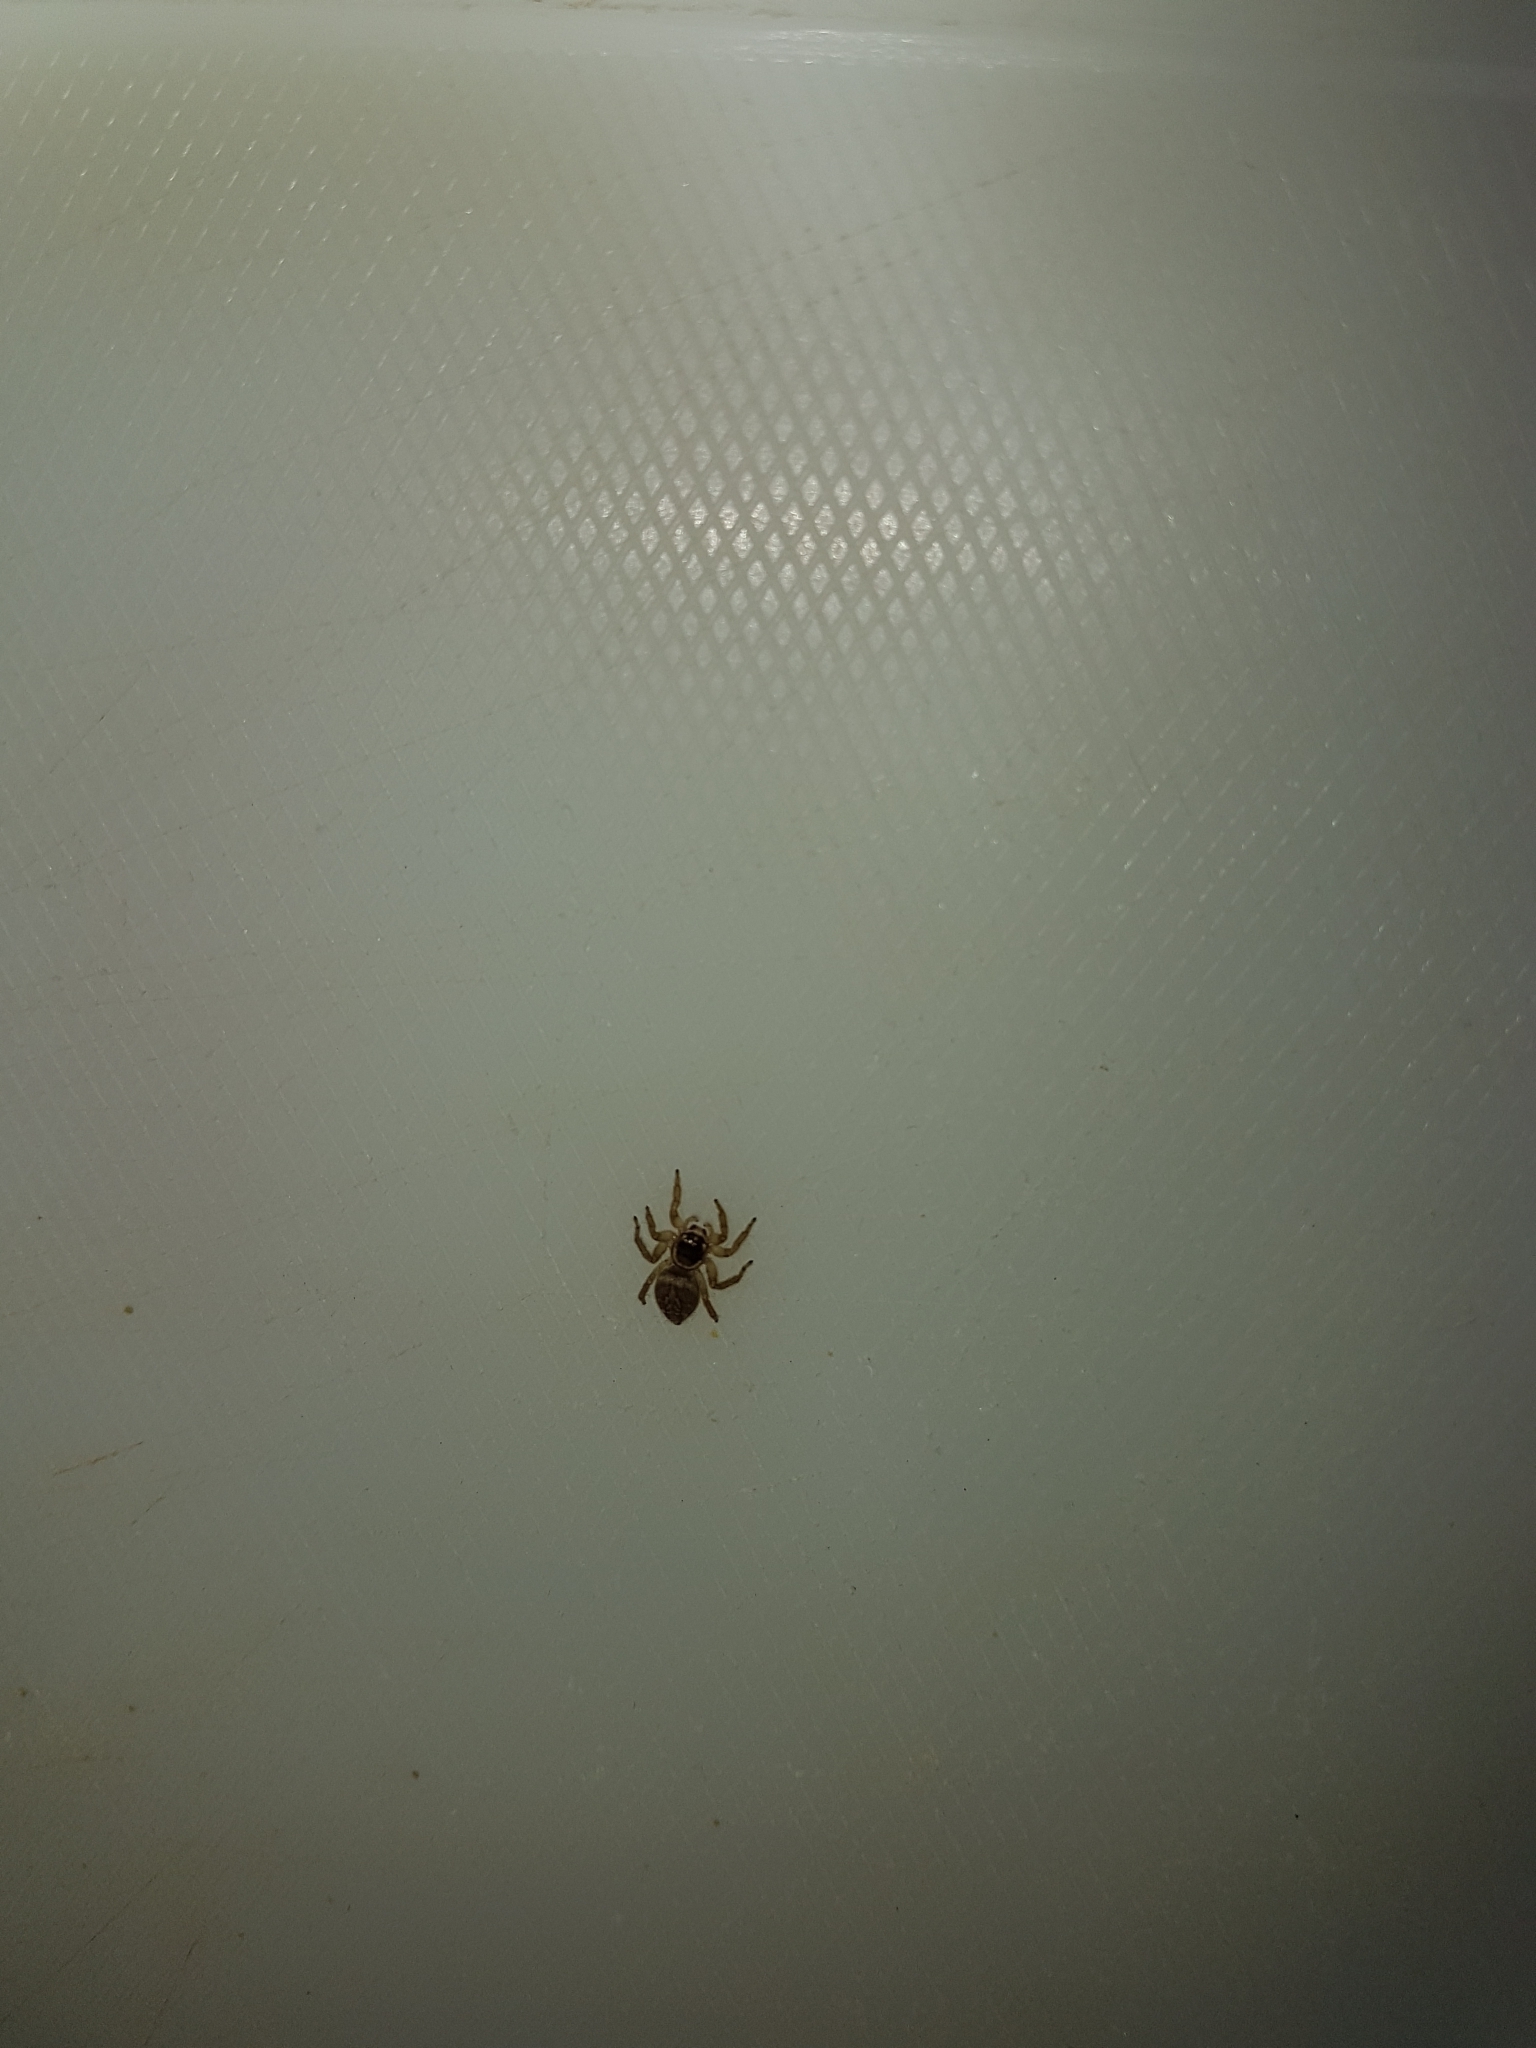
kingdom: Animalia
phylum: Arthropoda
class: Arachnida
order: Araneae
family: Salticidae
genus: Maratus
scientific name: Maratus griseus
